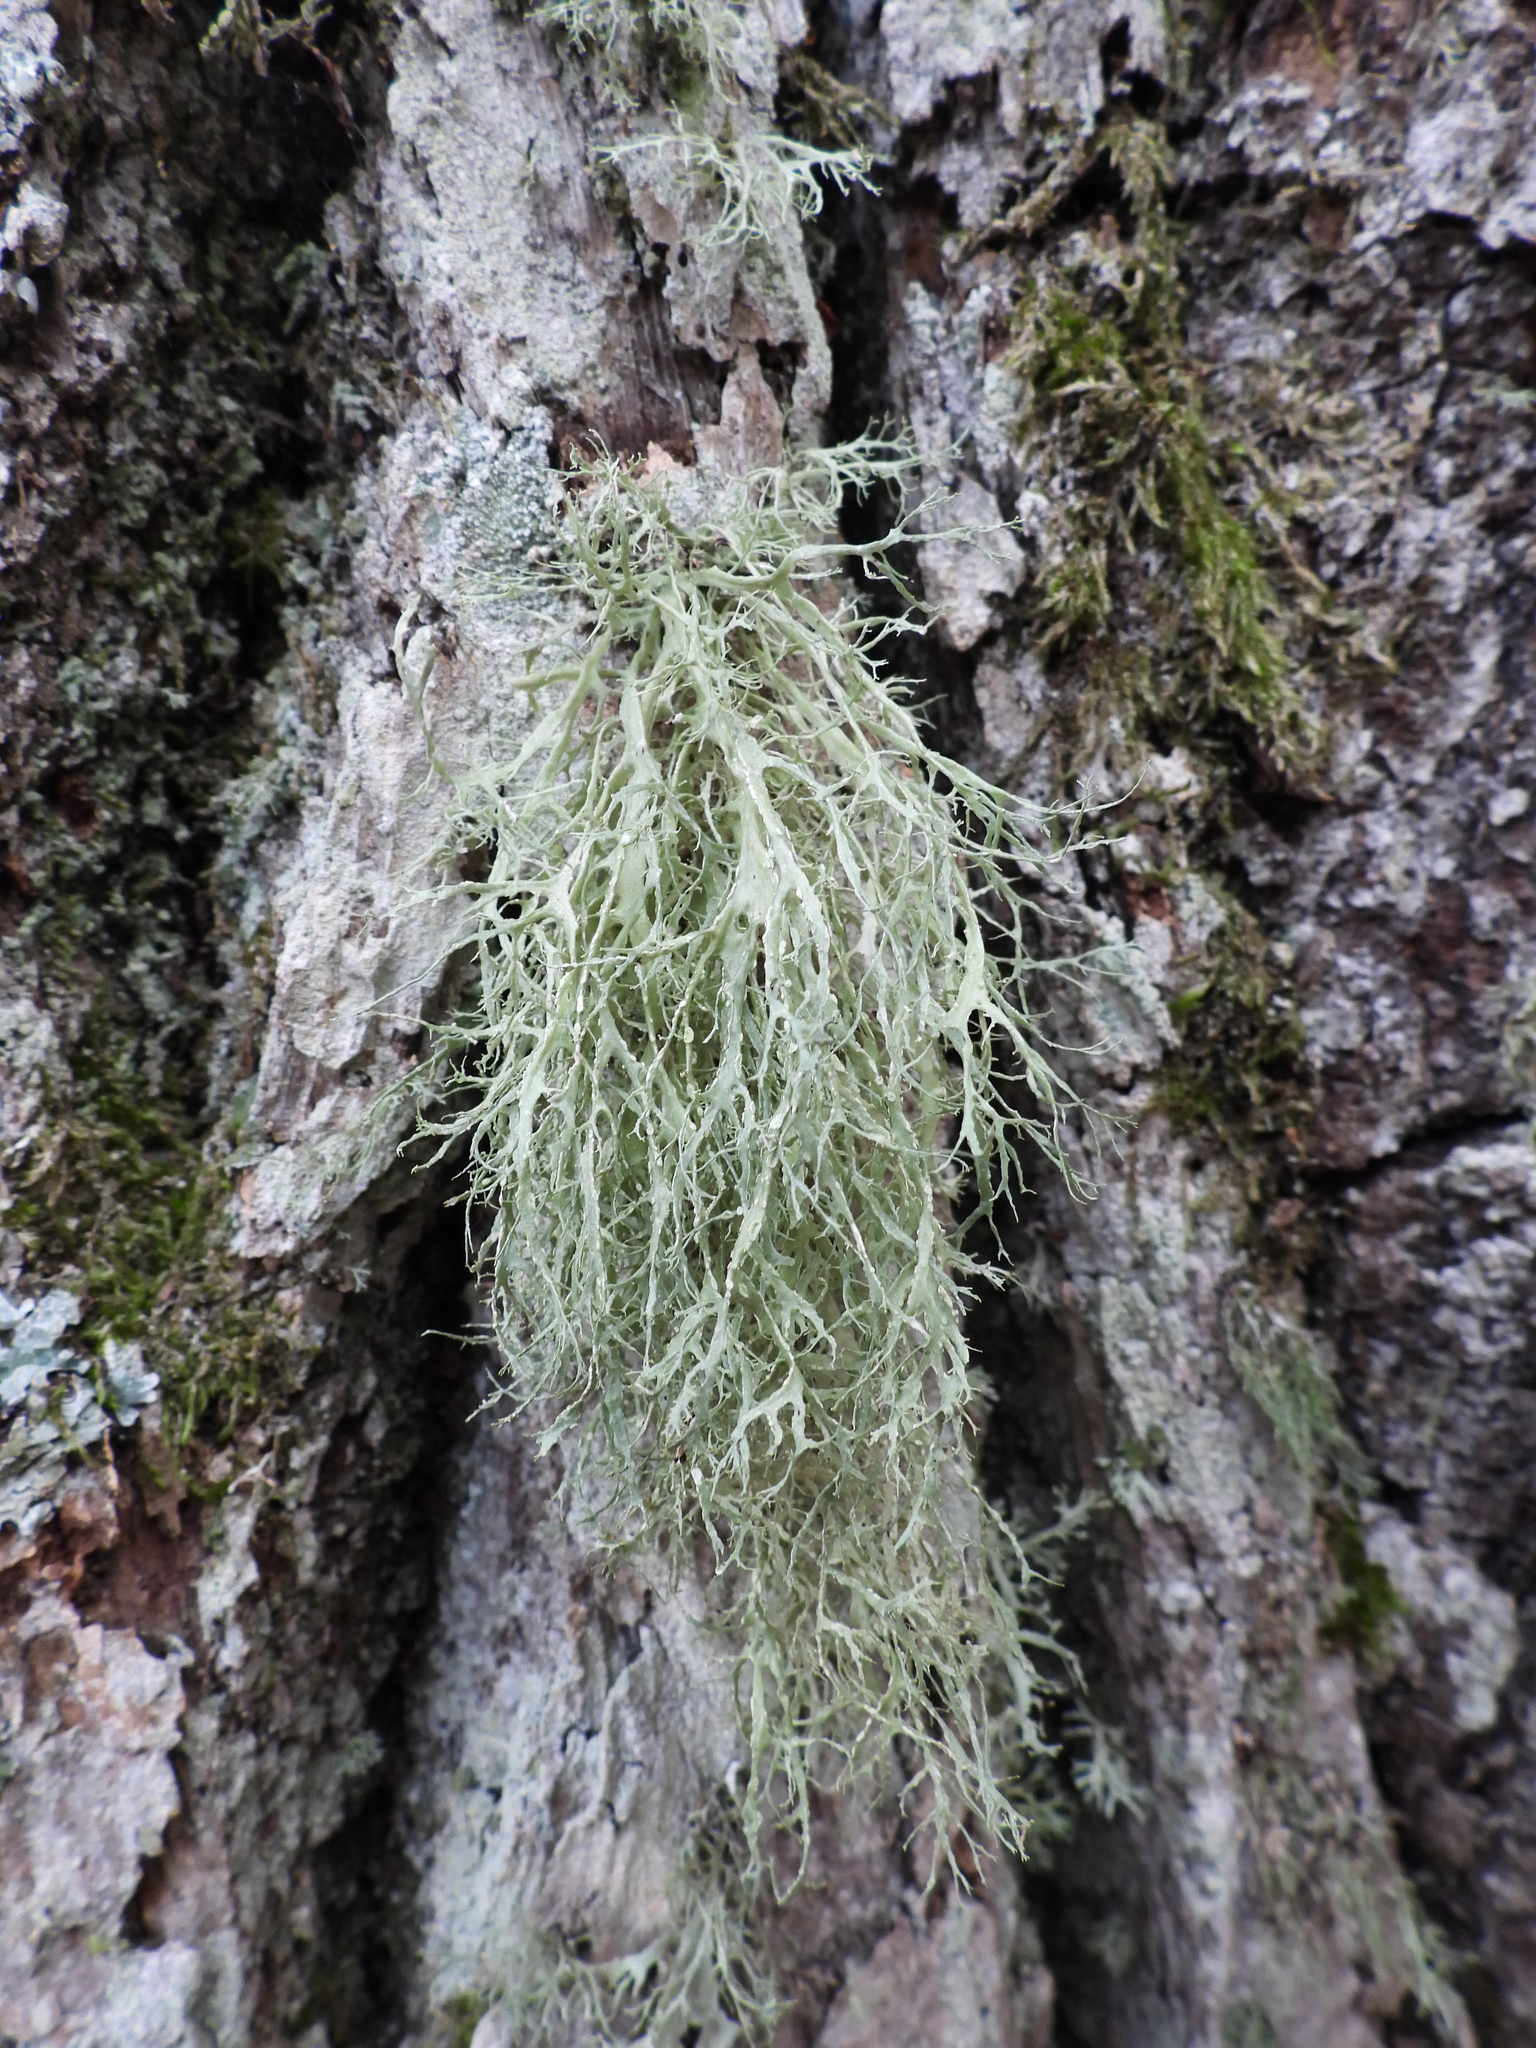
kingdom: Fungi
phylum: Ascomycota
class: Lecanoromycetes
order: Lecanorales
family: Ramalinaceae
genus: Ramalina
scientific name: Ramalina farinacea
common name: Farinose cartilage lichen
